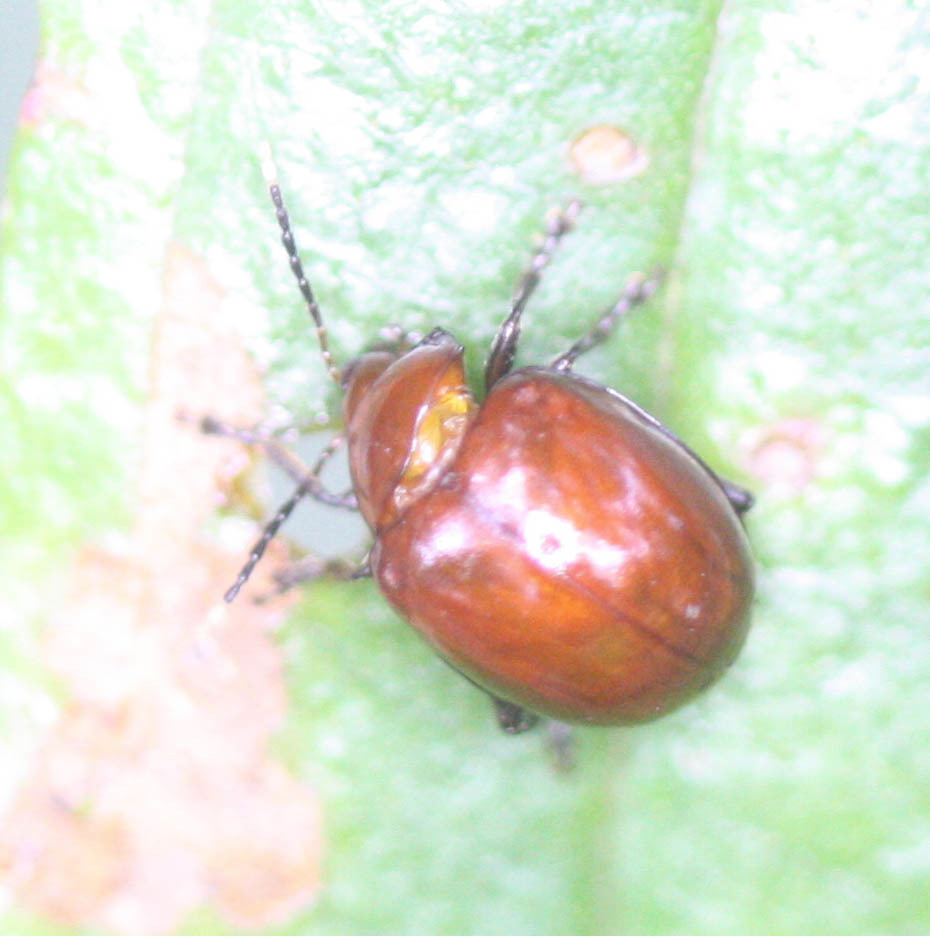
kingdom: Animalia
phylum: Arthropoda
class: Insecta
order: Coleoptera
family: Chrysomelidae
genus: Chabria
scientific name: Chabria angulicollis
